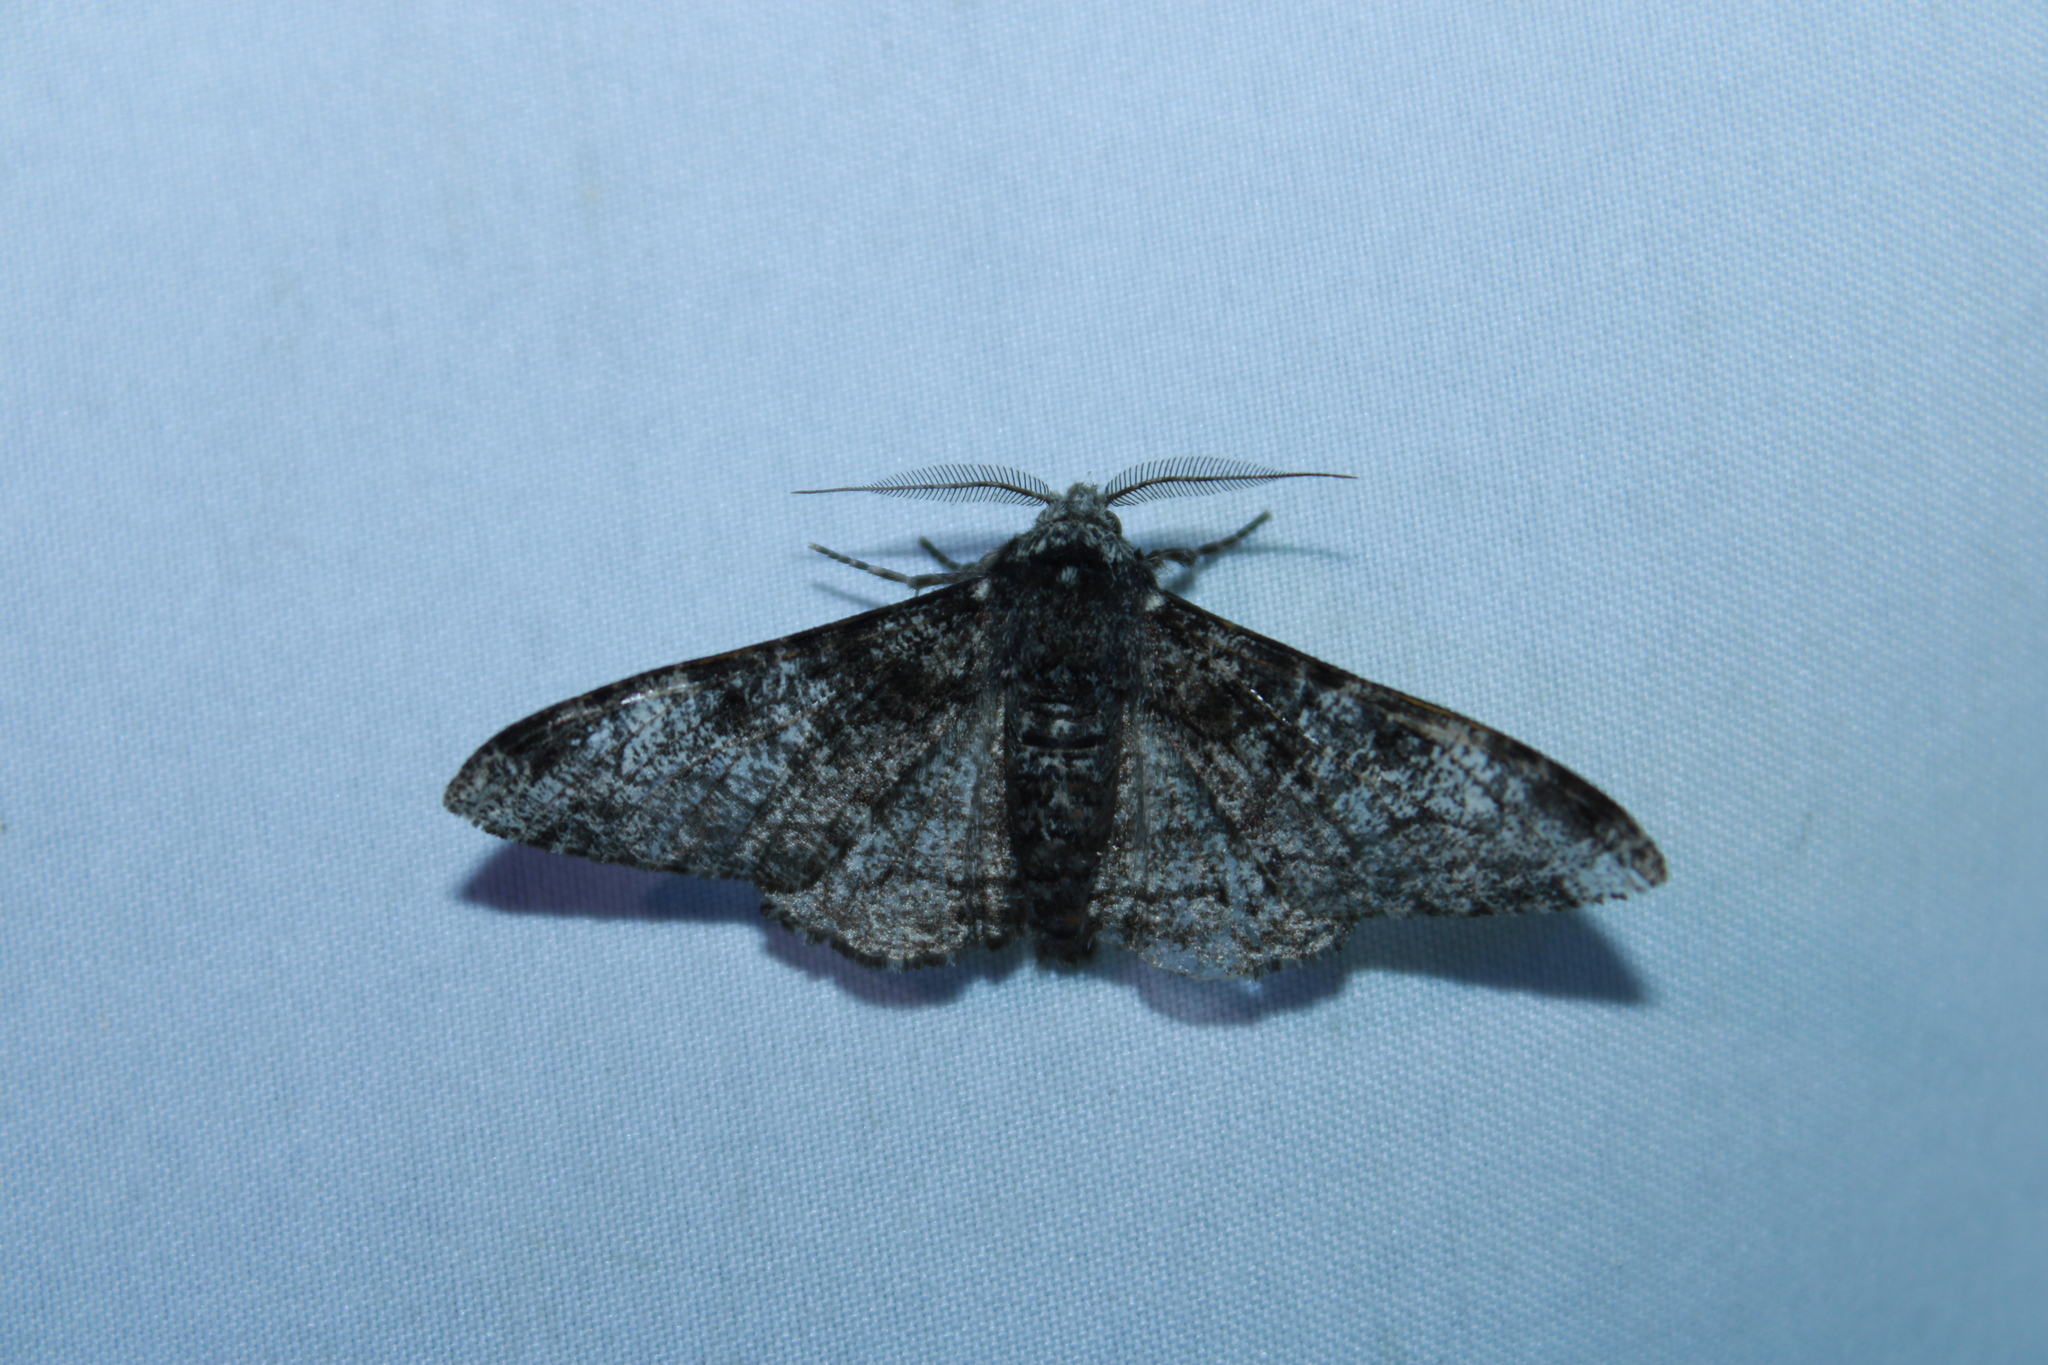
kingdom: Animalia
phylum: Arthropoda
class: Insecta
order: Lepidoptera
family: Geometridae
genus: Biston
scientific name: Biston betularia
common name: Peppered moth
